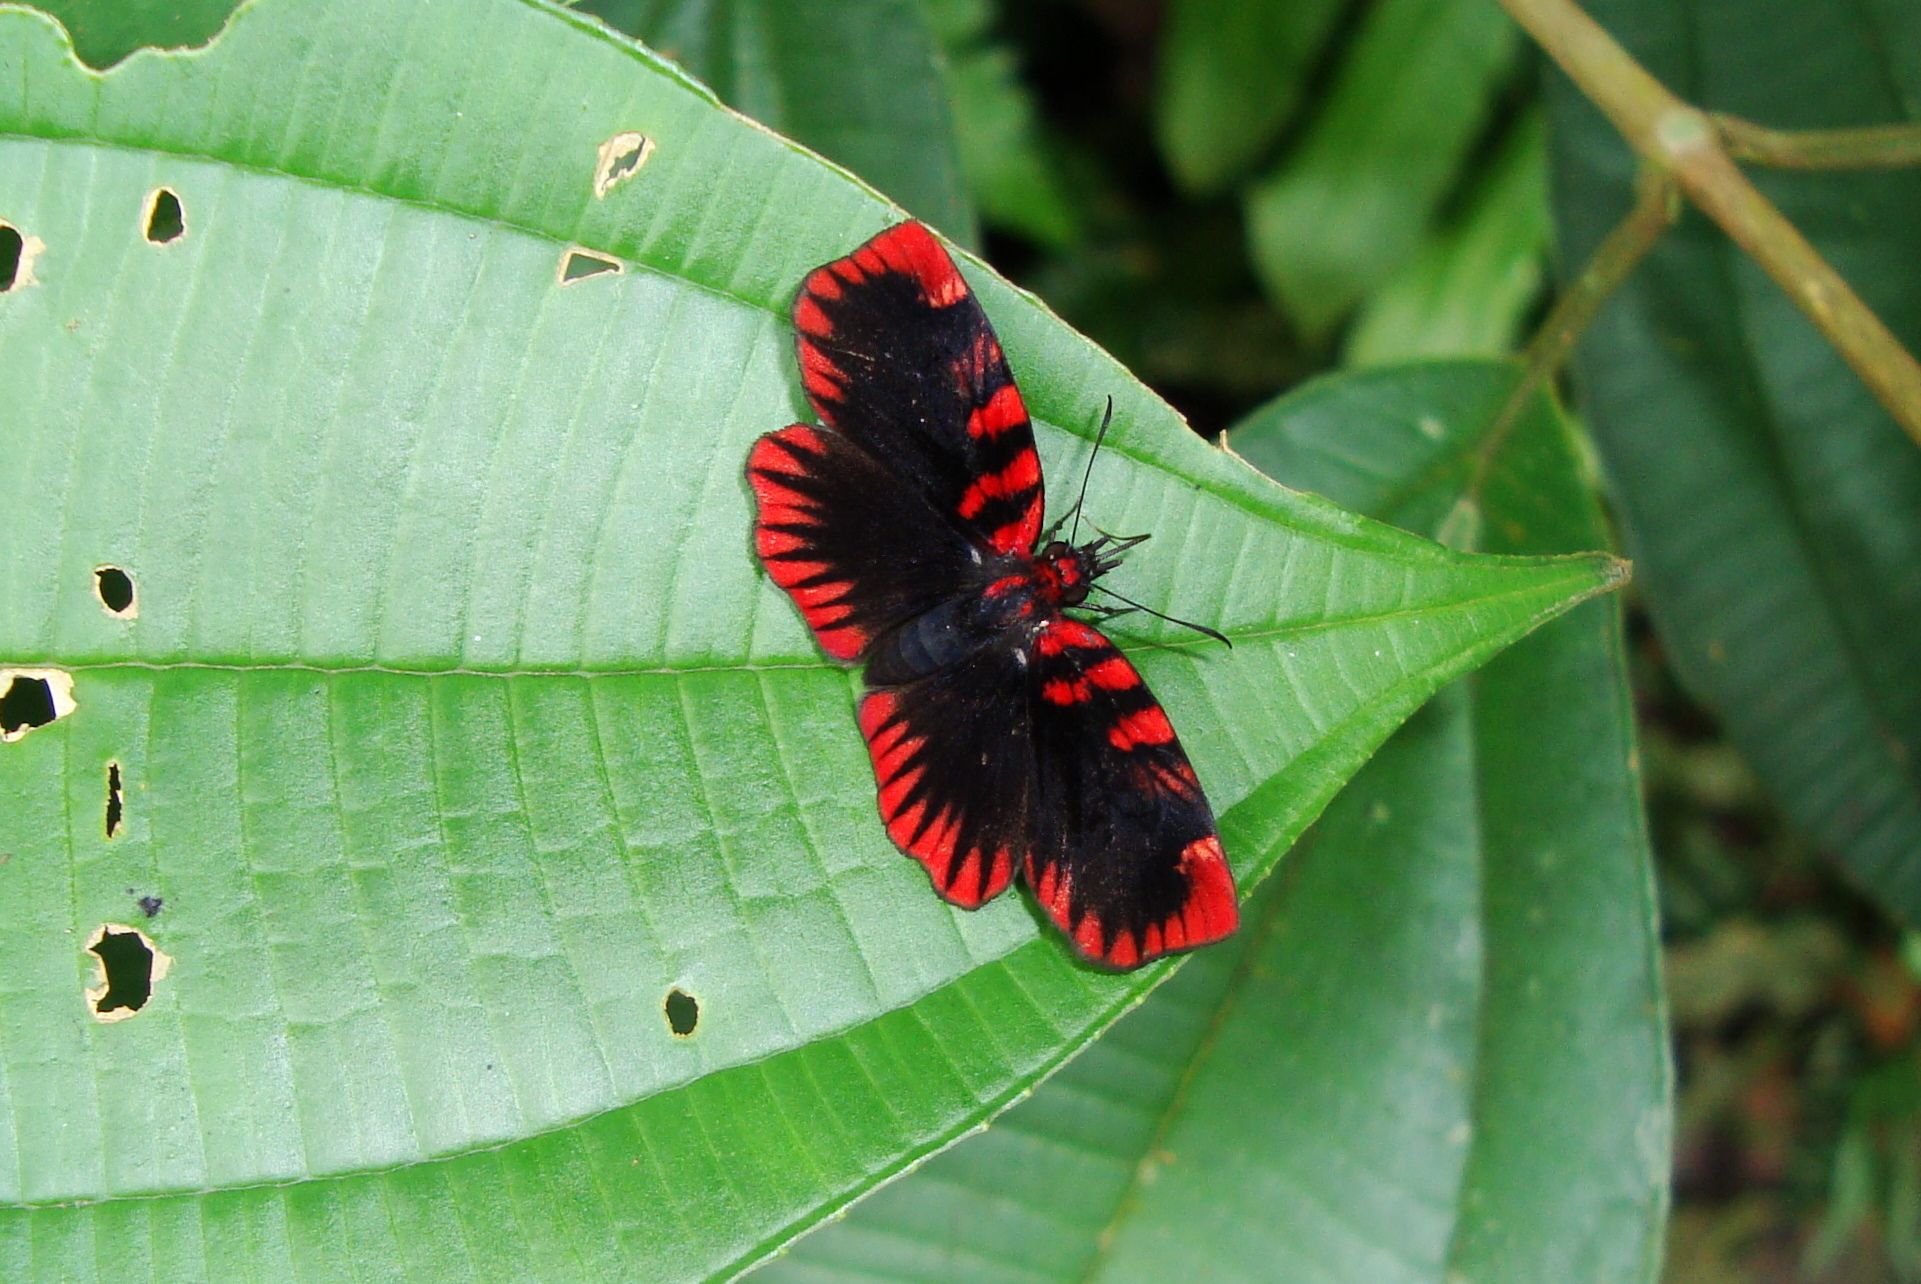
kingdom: Animalia
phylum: Arthropoda
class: Insecta
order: Lepidoptera
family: Hesperiidae
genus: Haemactis
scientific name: Haemactis sanguinalis
